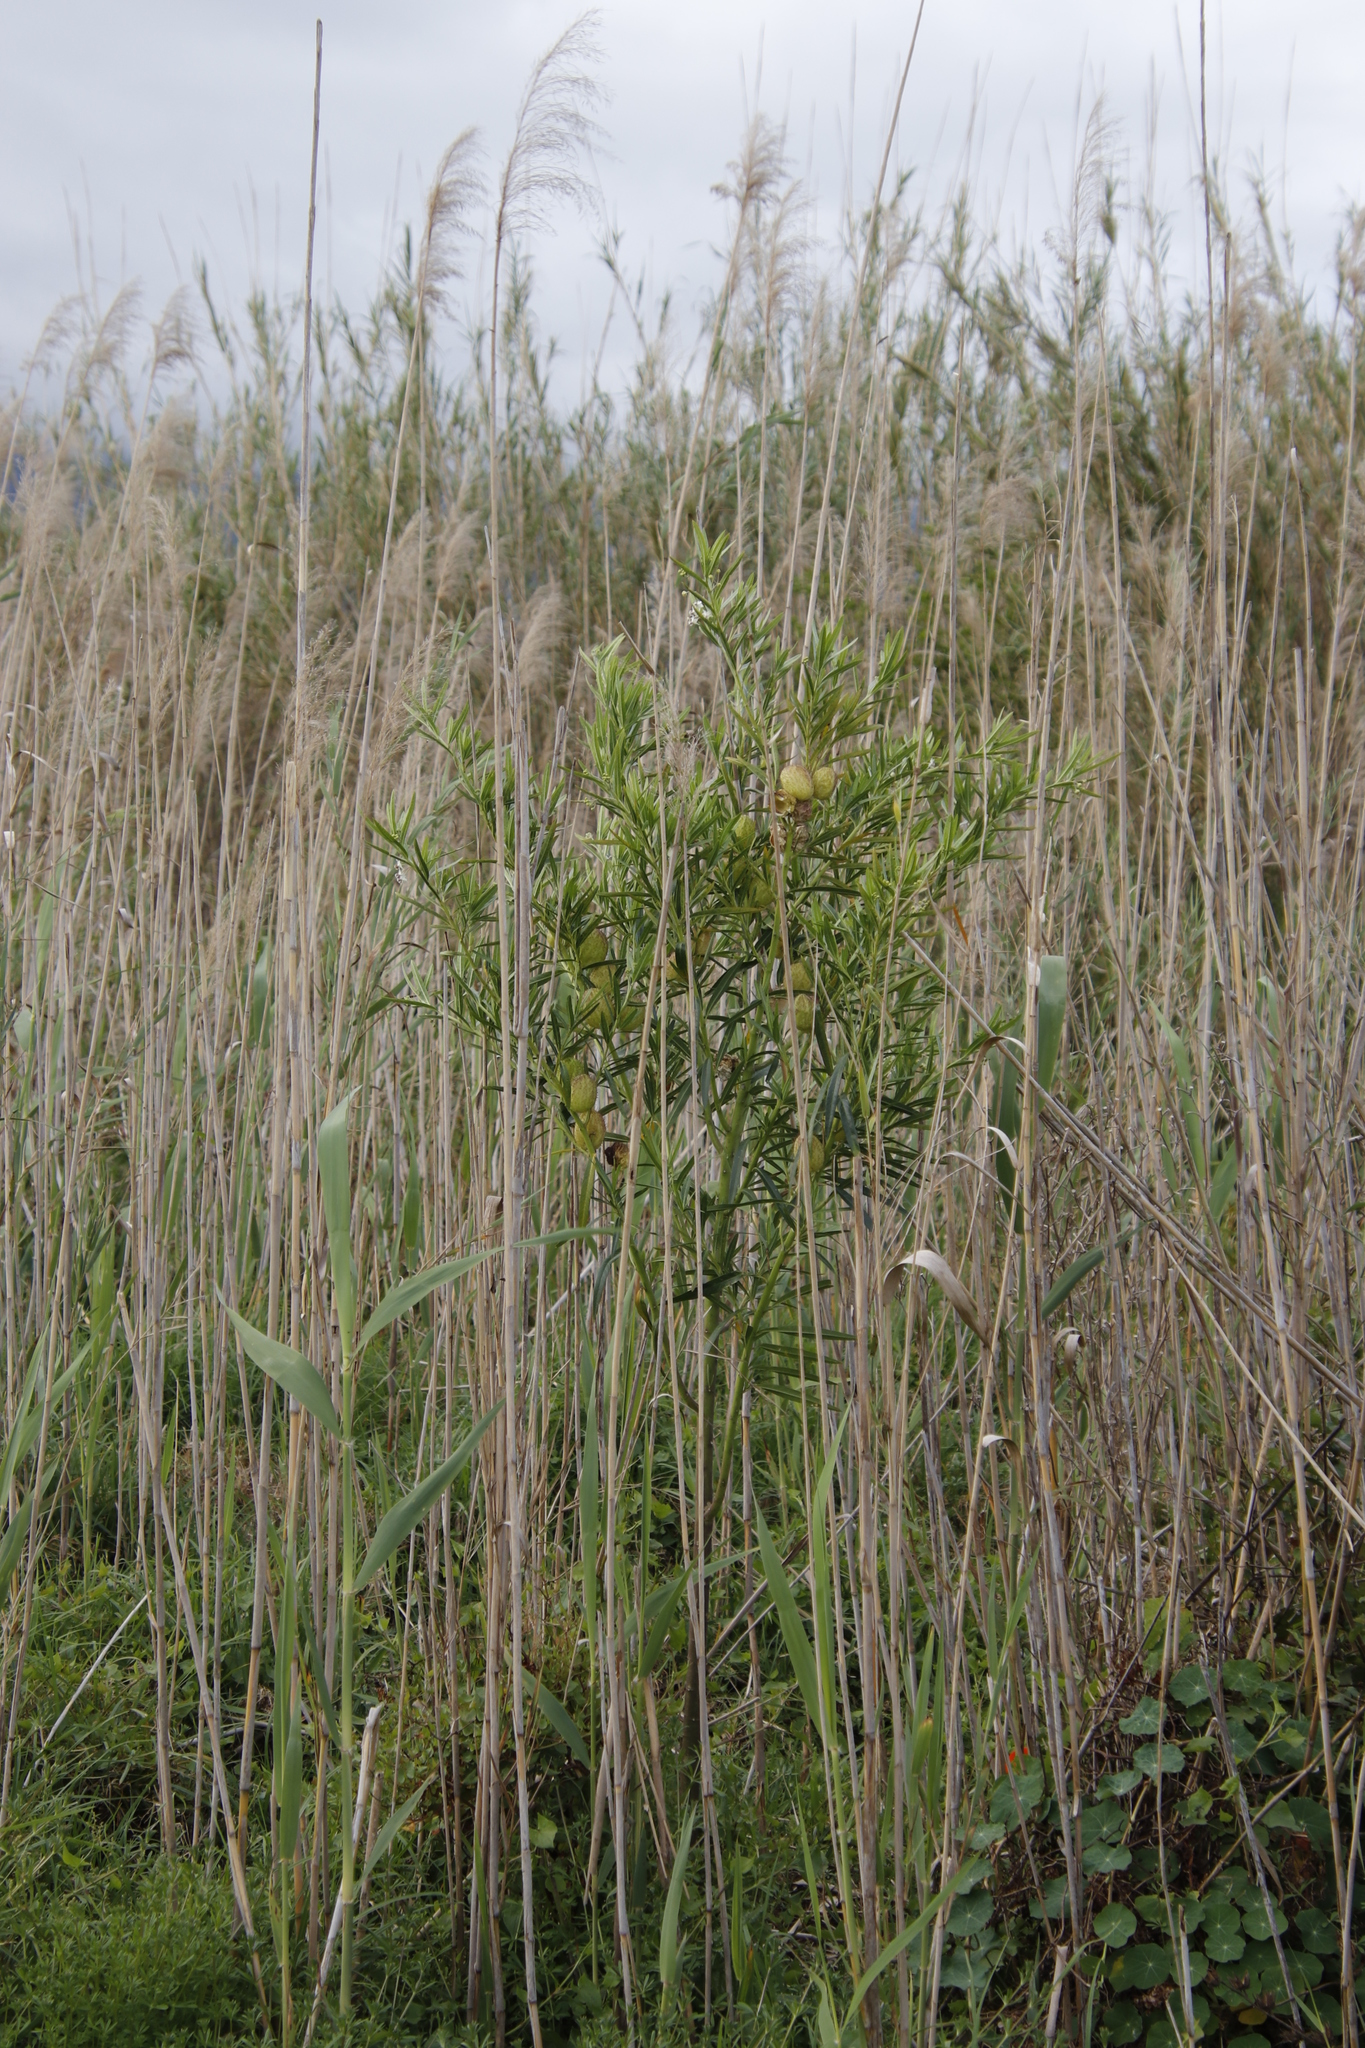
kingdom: Plantae
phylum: Tracheophyta
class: Magnoliopsida
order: Gentianales
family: Apocynaceae
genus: Gomphocarpus
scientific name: Gomphocarpus physocarpus
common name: Balloon cotton bush
